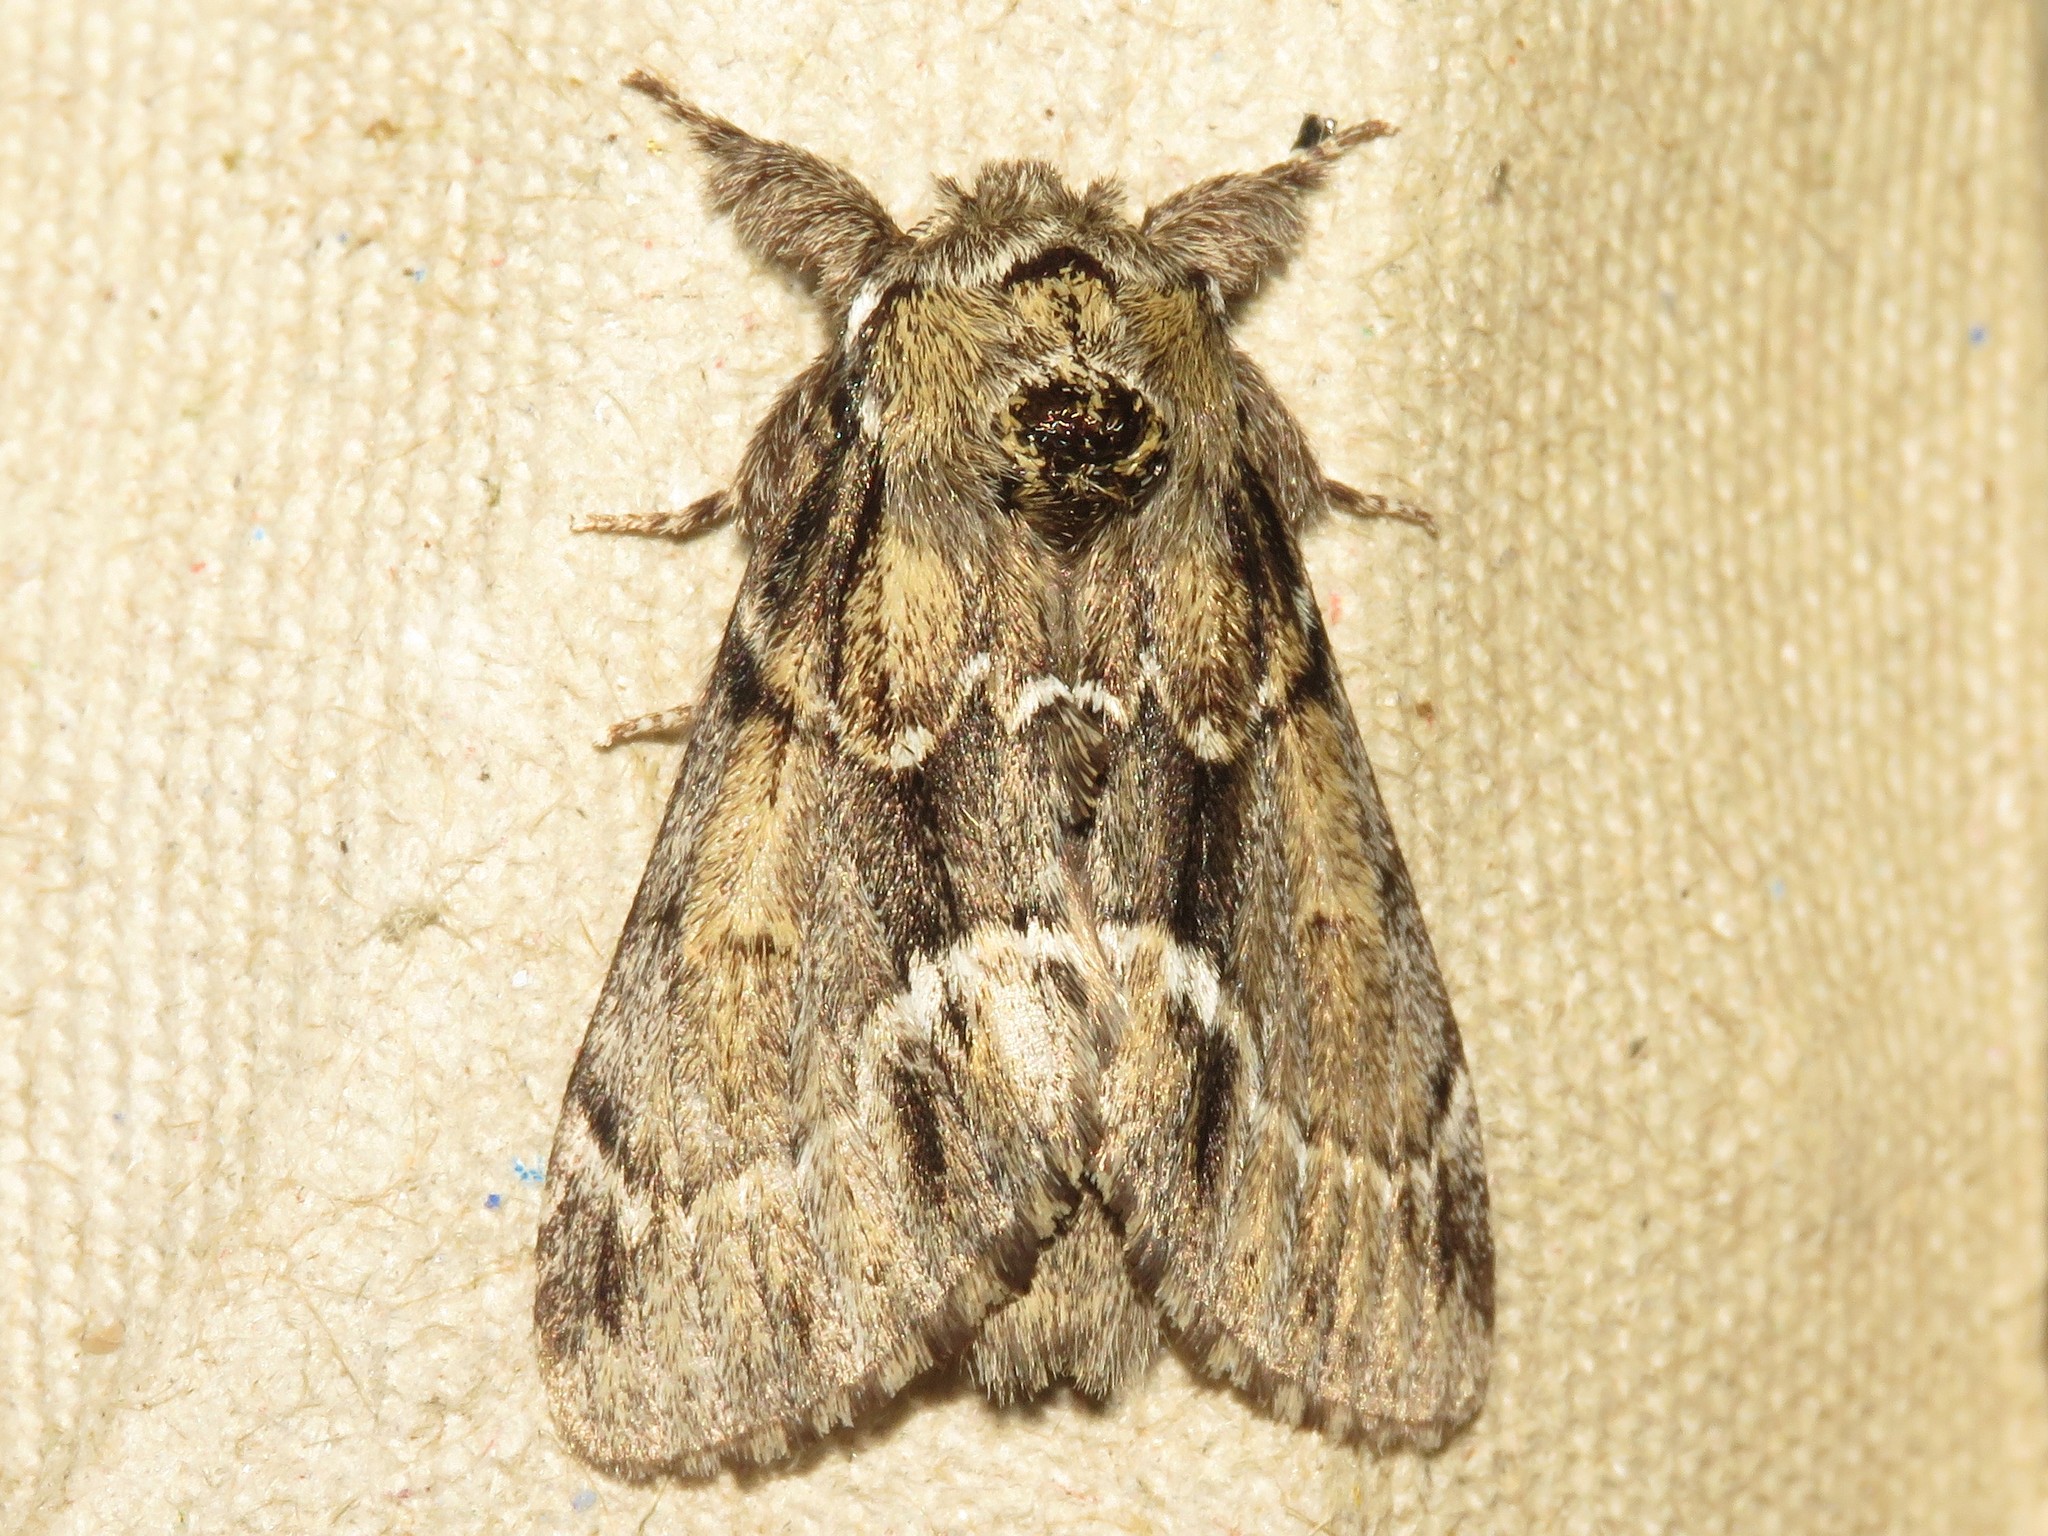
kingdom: Animalia
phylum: Arthropoda
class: Insecta
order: Lepidoptera
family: Notodontidae
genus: Paraeschra
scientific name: Paraeschra georgica
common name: Georgian prominent
